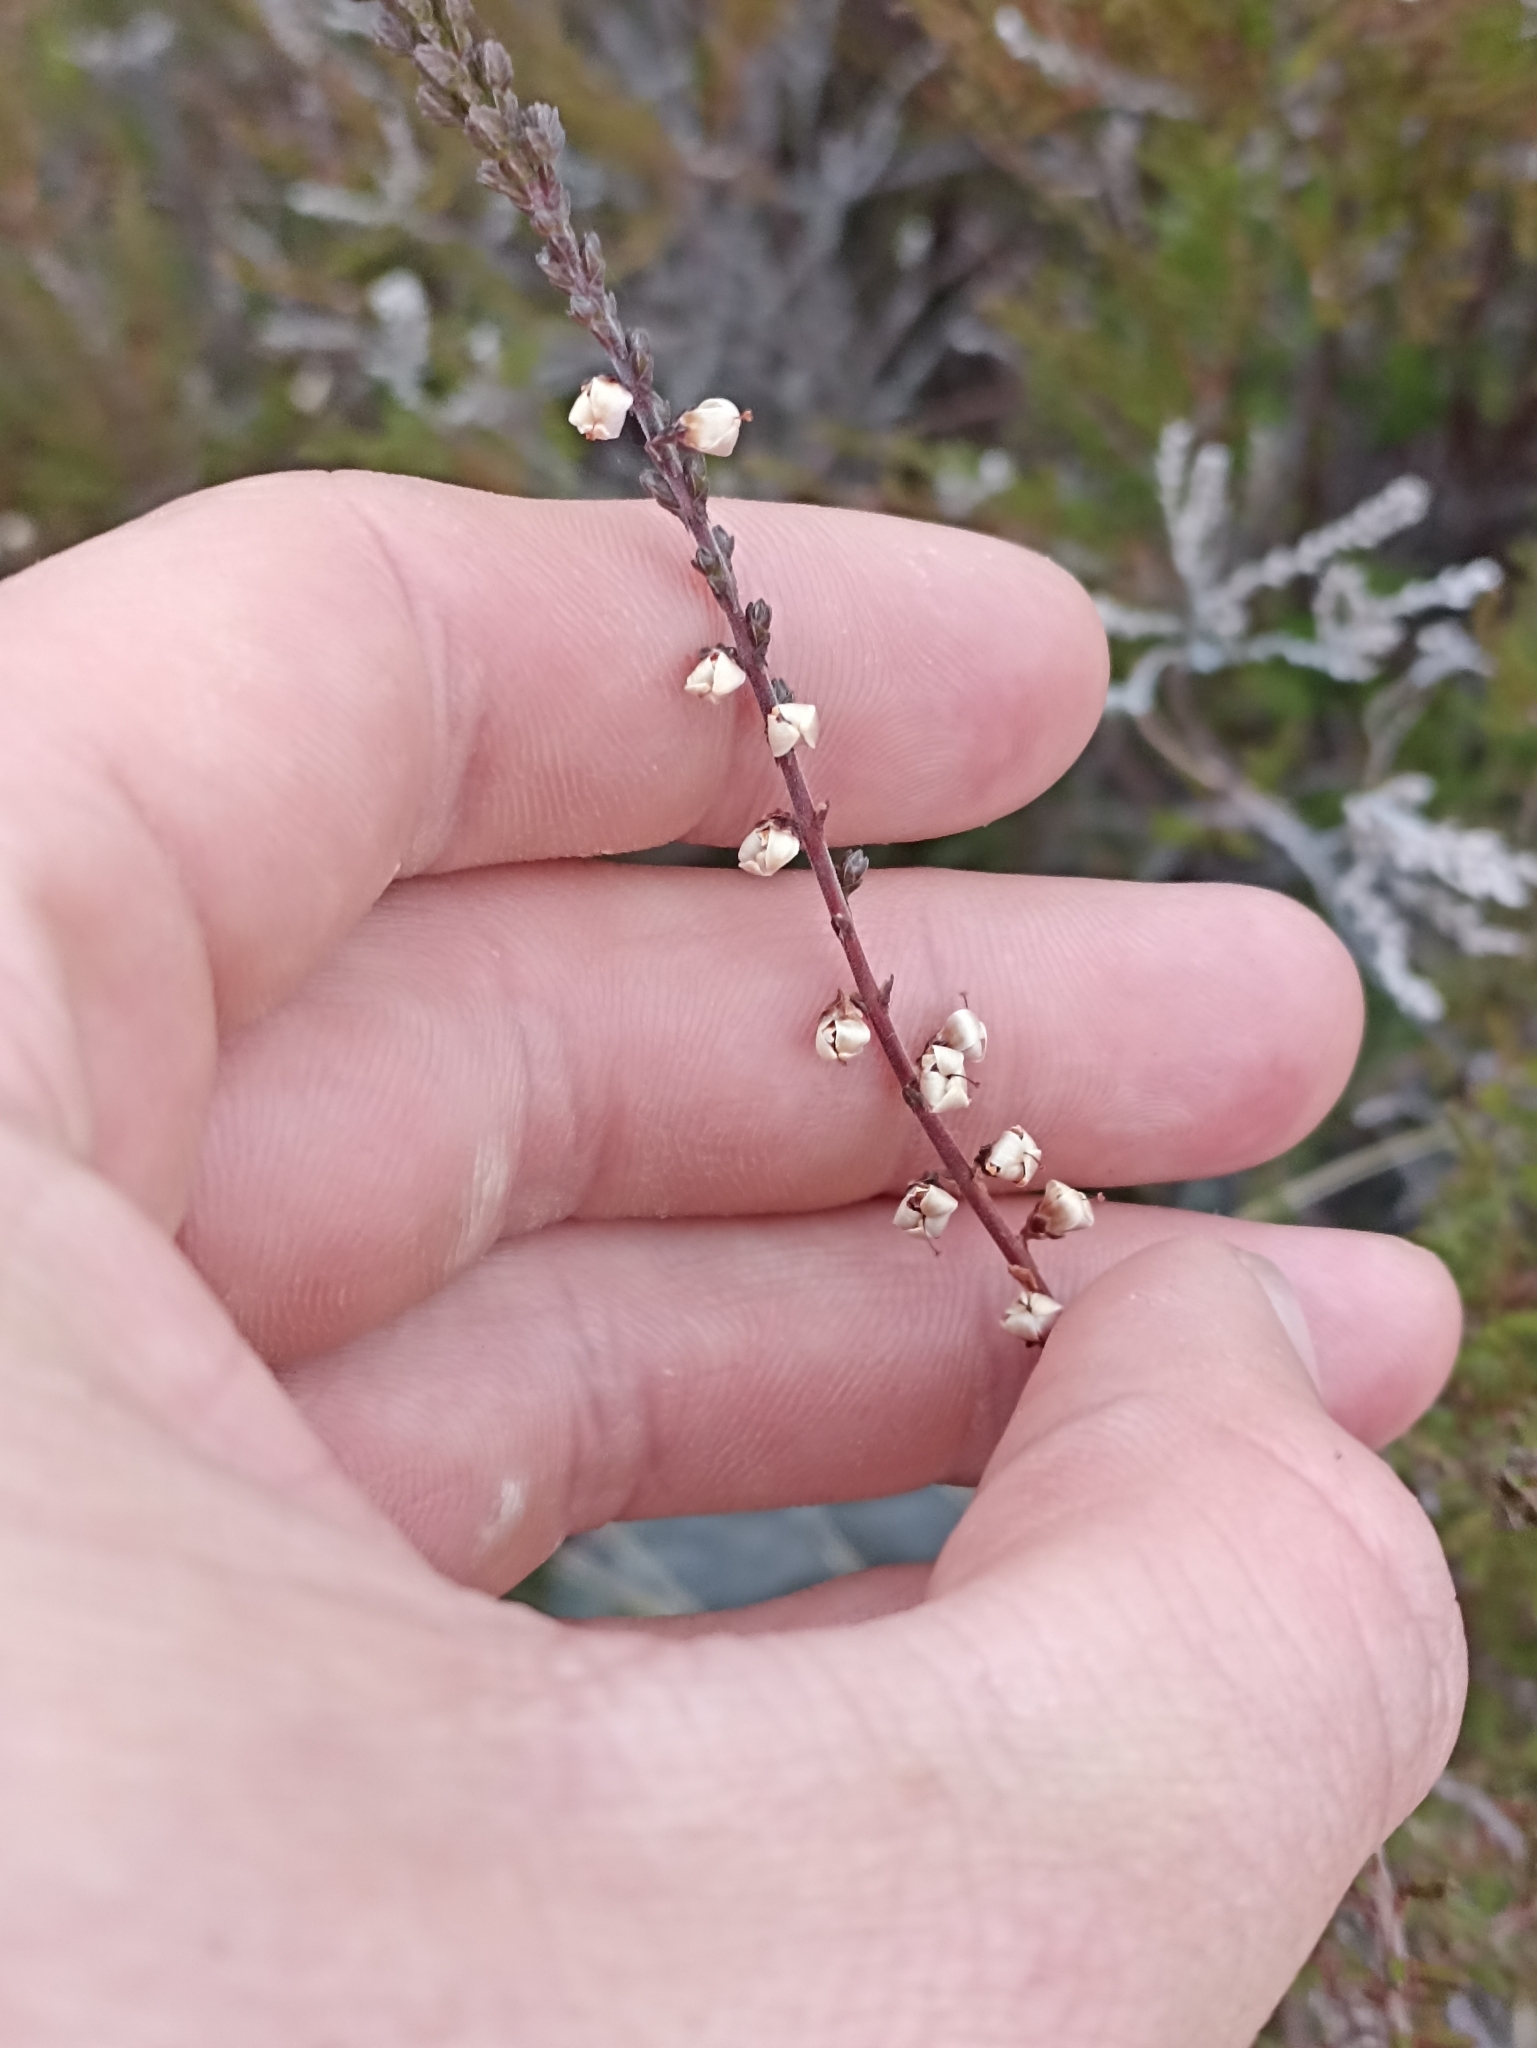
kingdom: Plantae
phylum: Tracheophyta
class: Magnoliopsida
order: Ericales
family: Ericaceae
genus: Calluna
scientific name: Calluna vulgaris
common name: Heather
